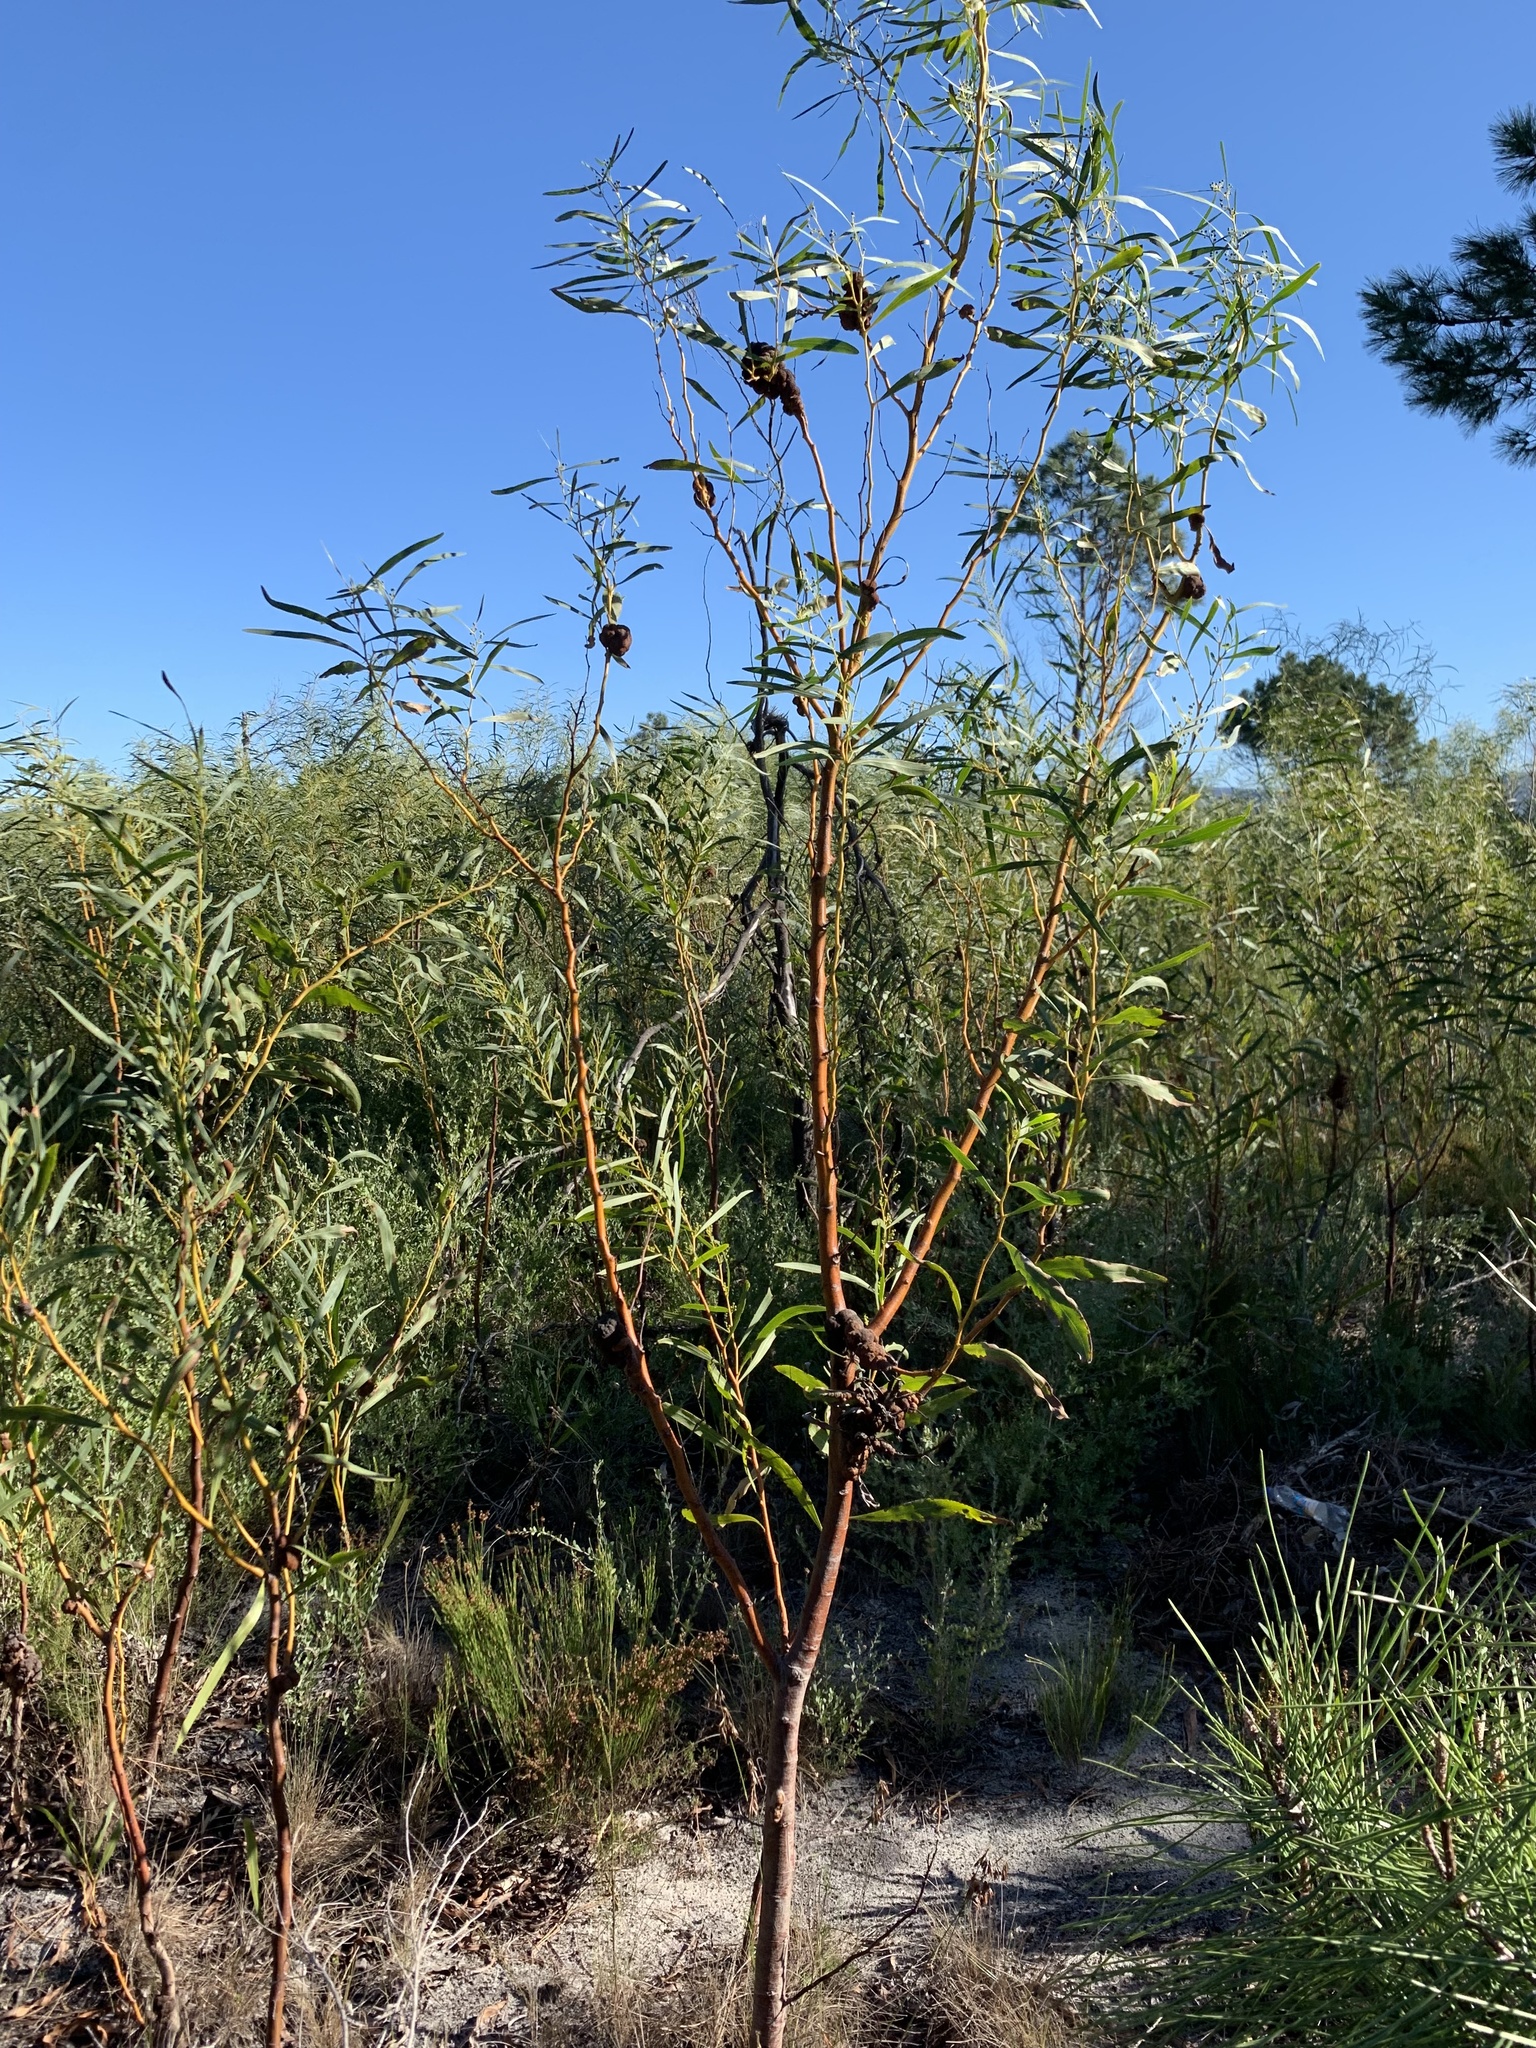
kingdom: Plantae
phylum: Tracheophyta
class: Magnoliopsida
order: Fabales
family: Fabaceae
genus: Acacia
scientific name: Acacia saligna
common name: Orange wattle
